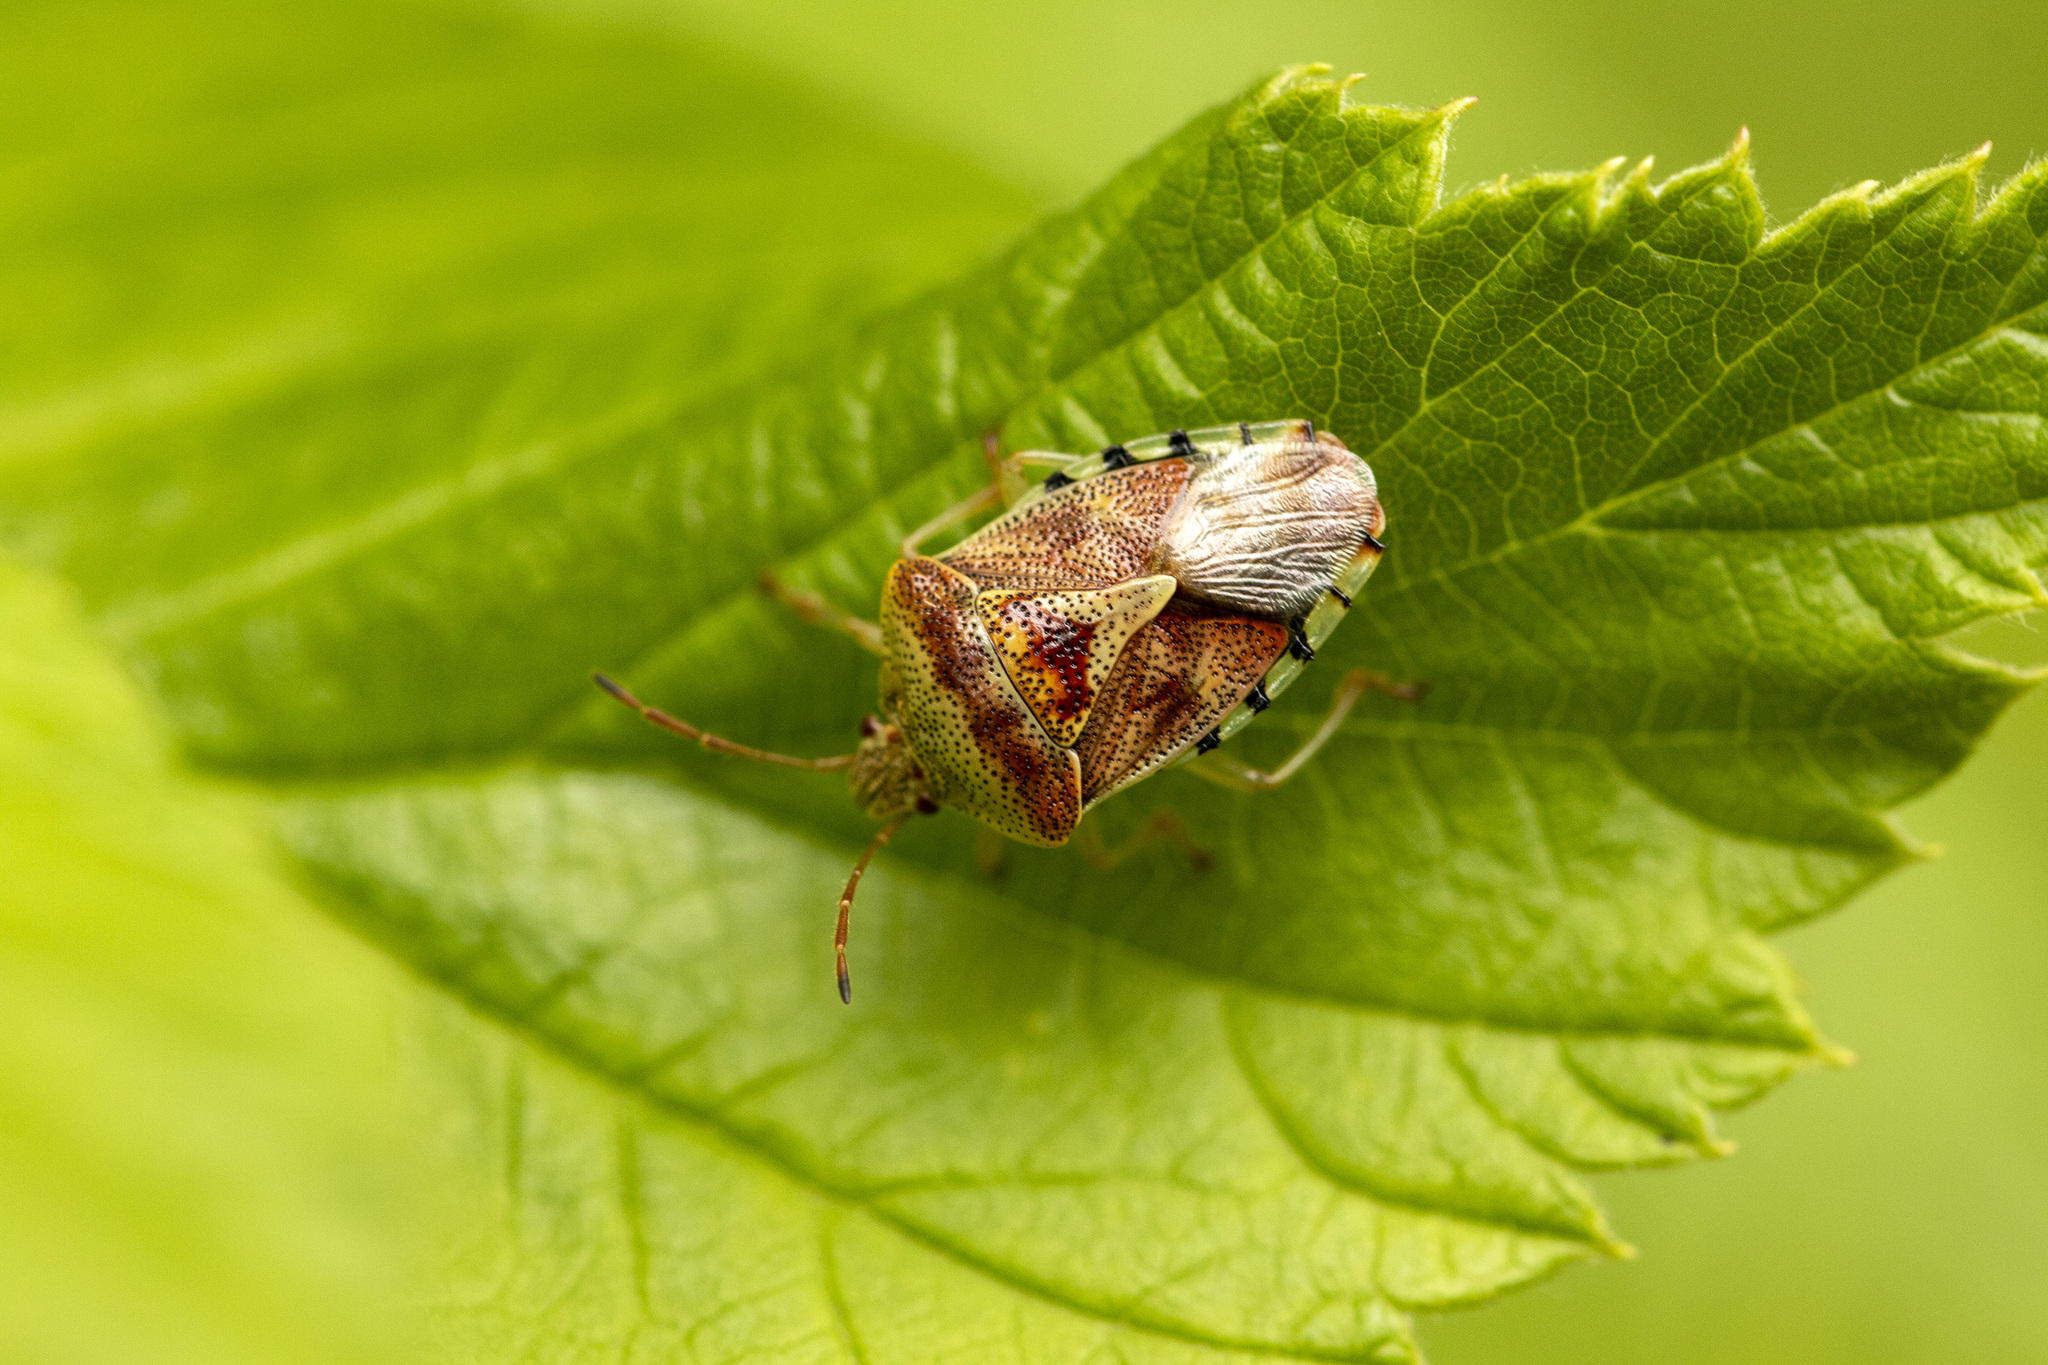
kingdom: Animalia
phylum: Arthropoda
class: Insecta
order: Hemiptera
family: Acanthosomatidae
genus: Elasmucha
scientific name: Elasmucha grisea
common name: Parent bug
